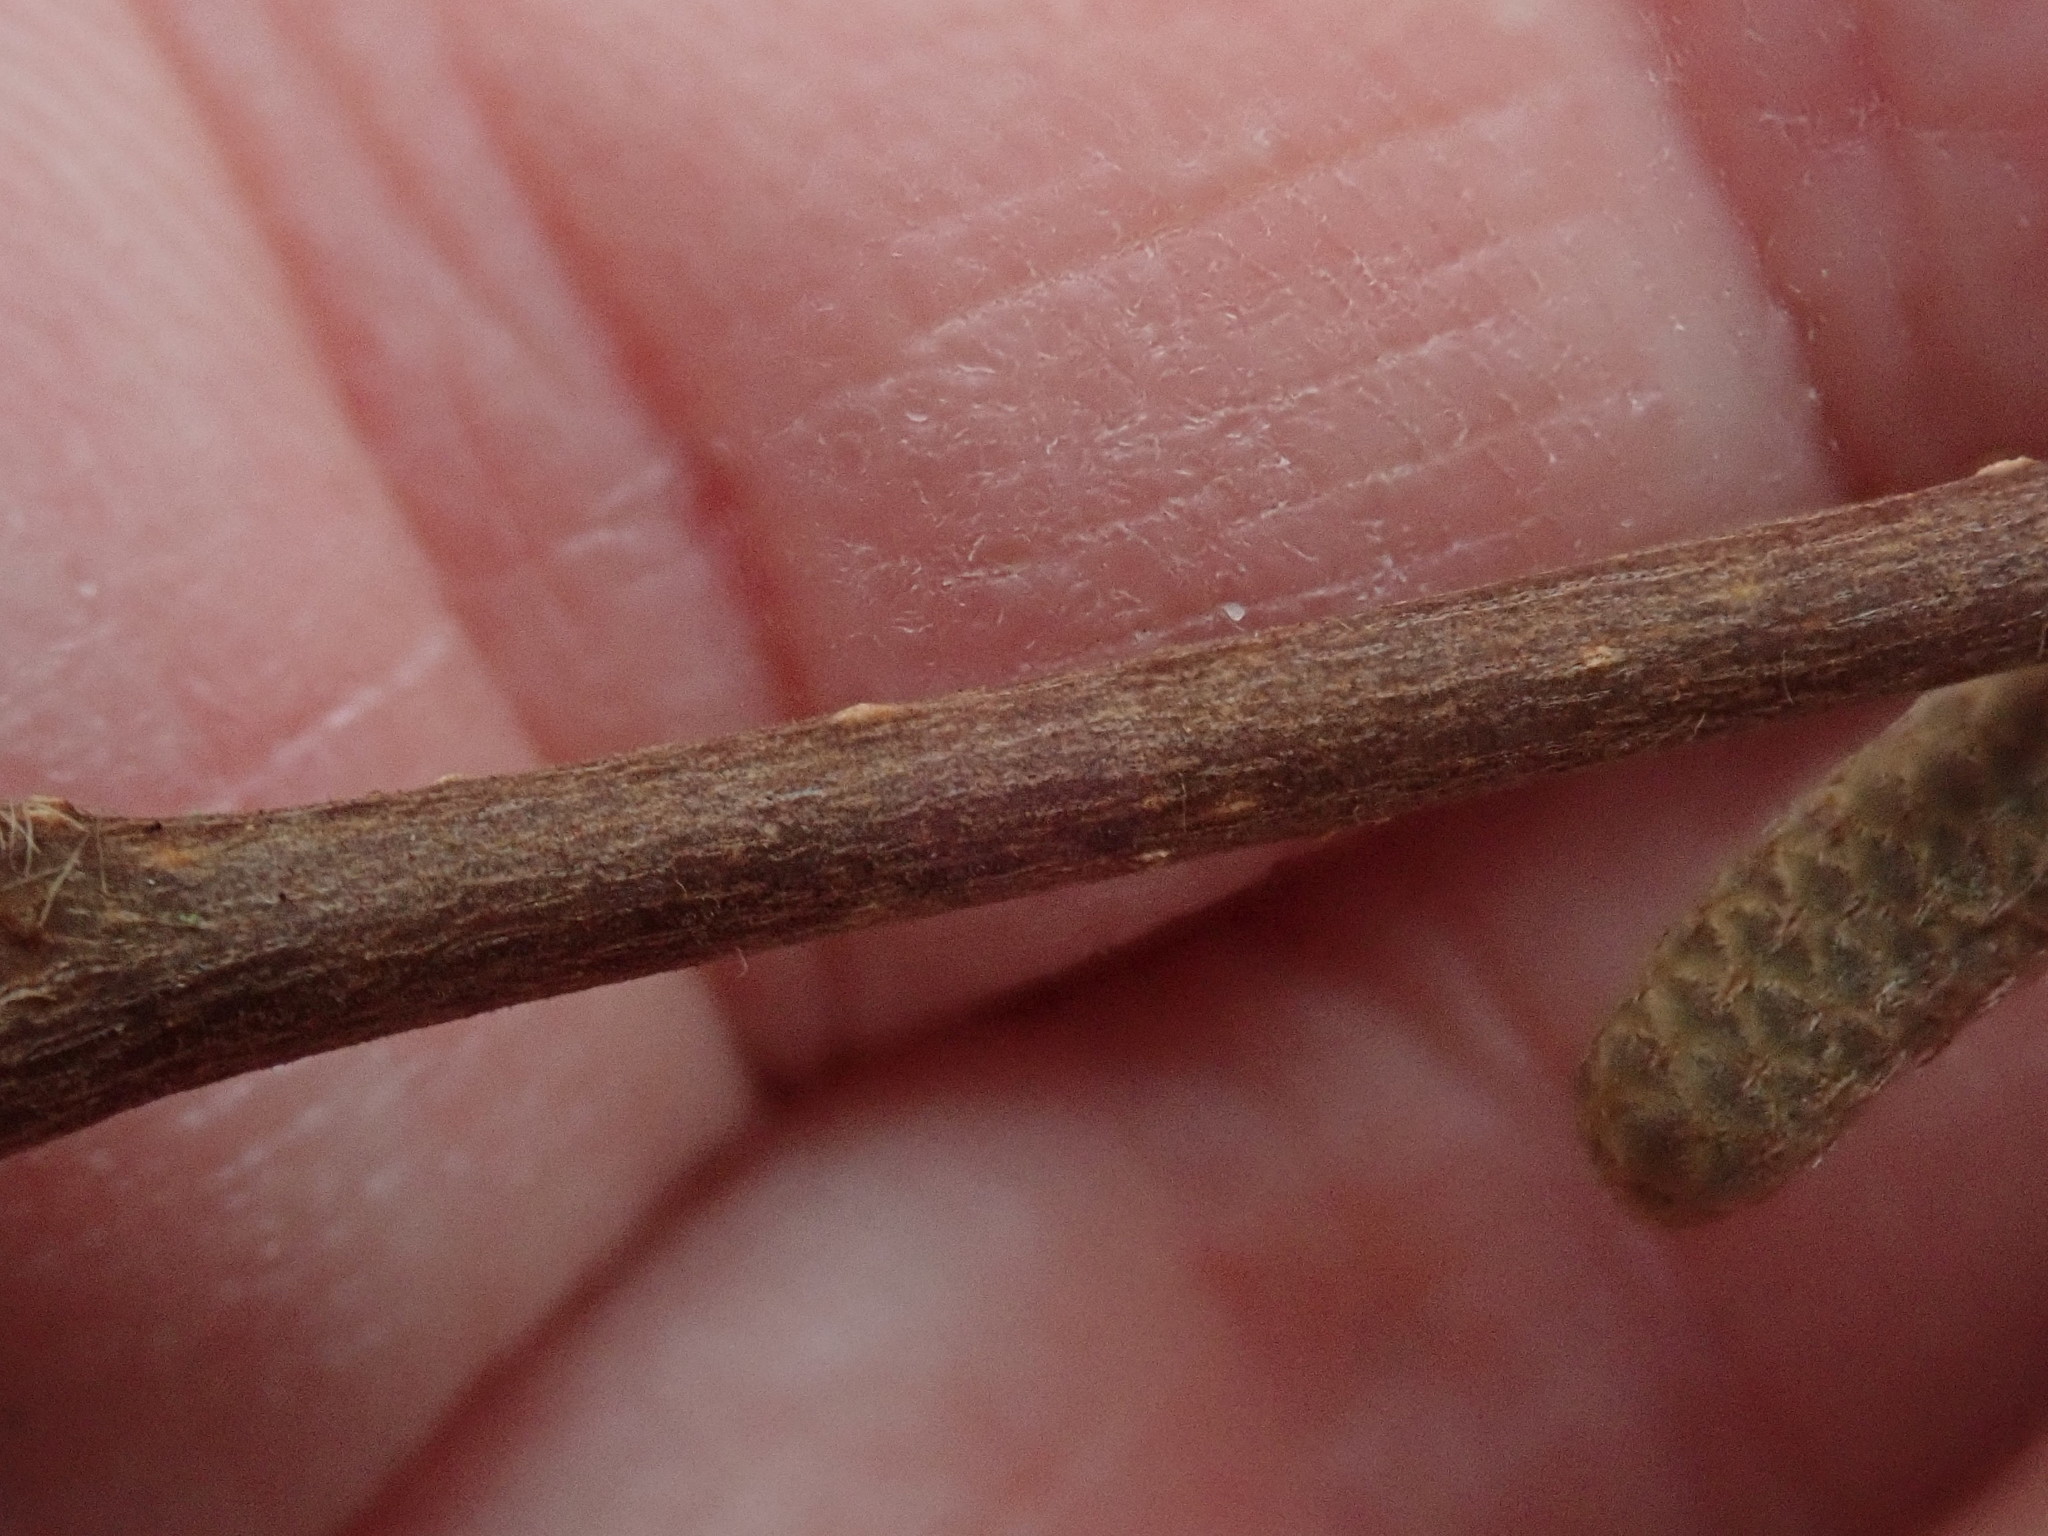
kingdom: Plantae
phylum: Tracheophyta
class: Magnoliopsida
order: Fagales
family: Betulaceae
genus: Corylus
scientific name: Corylus cornuta
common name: Beaked hazel
